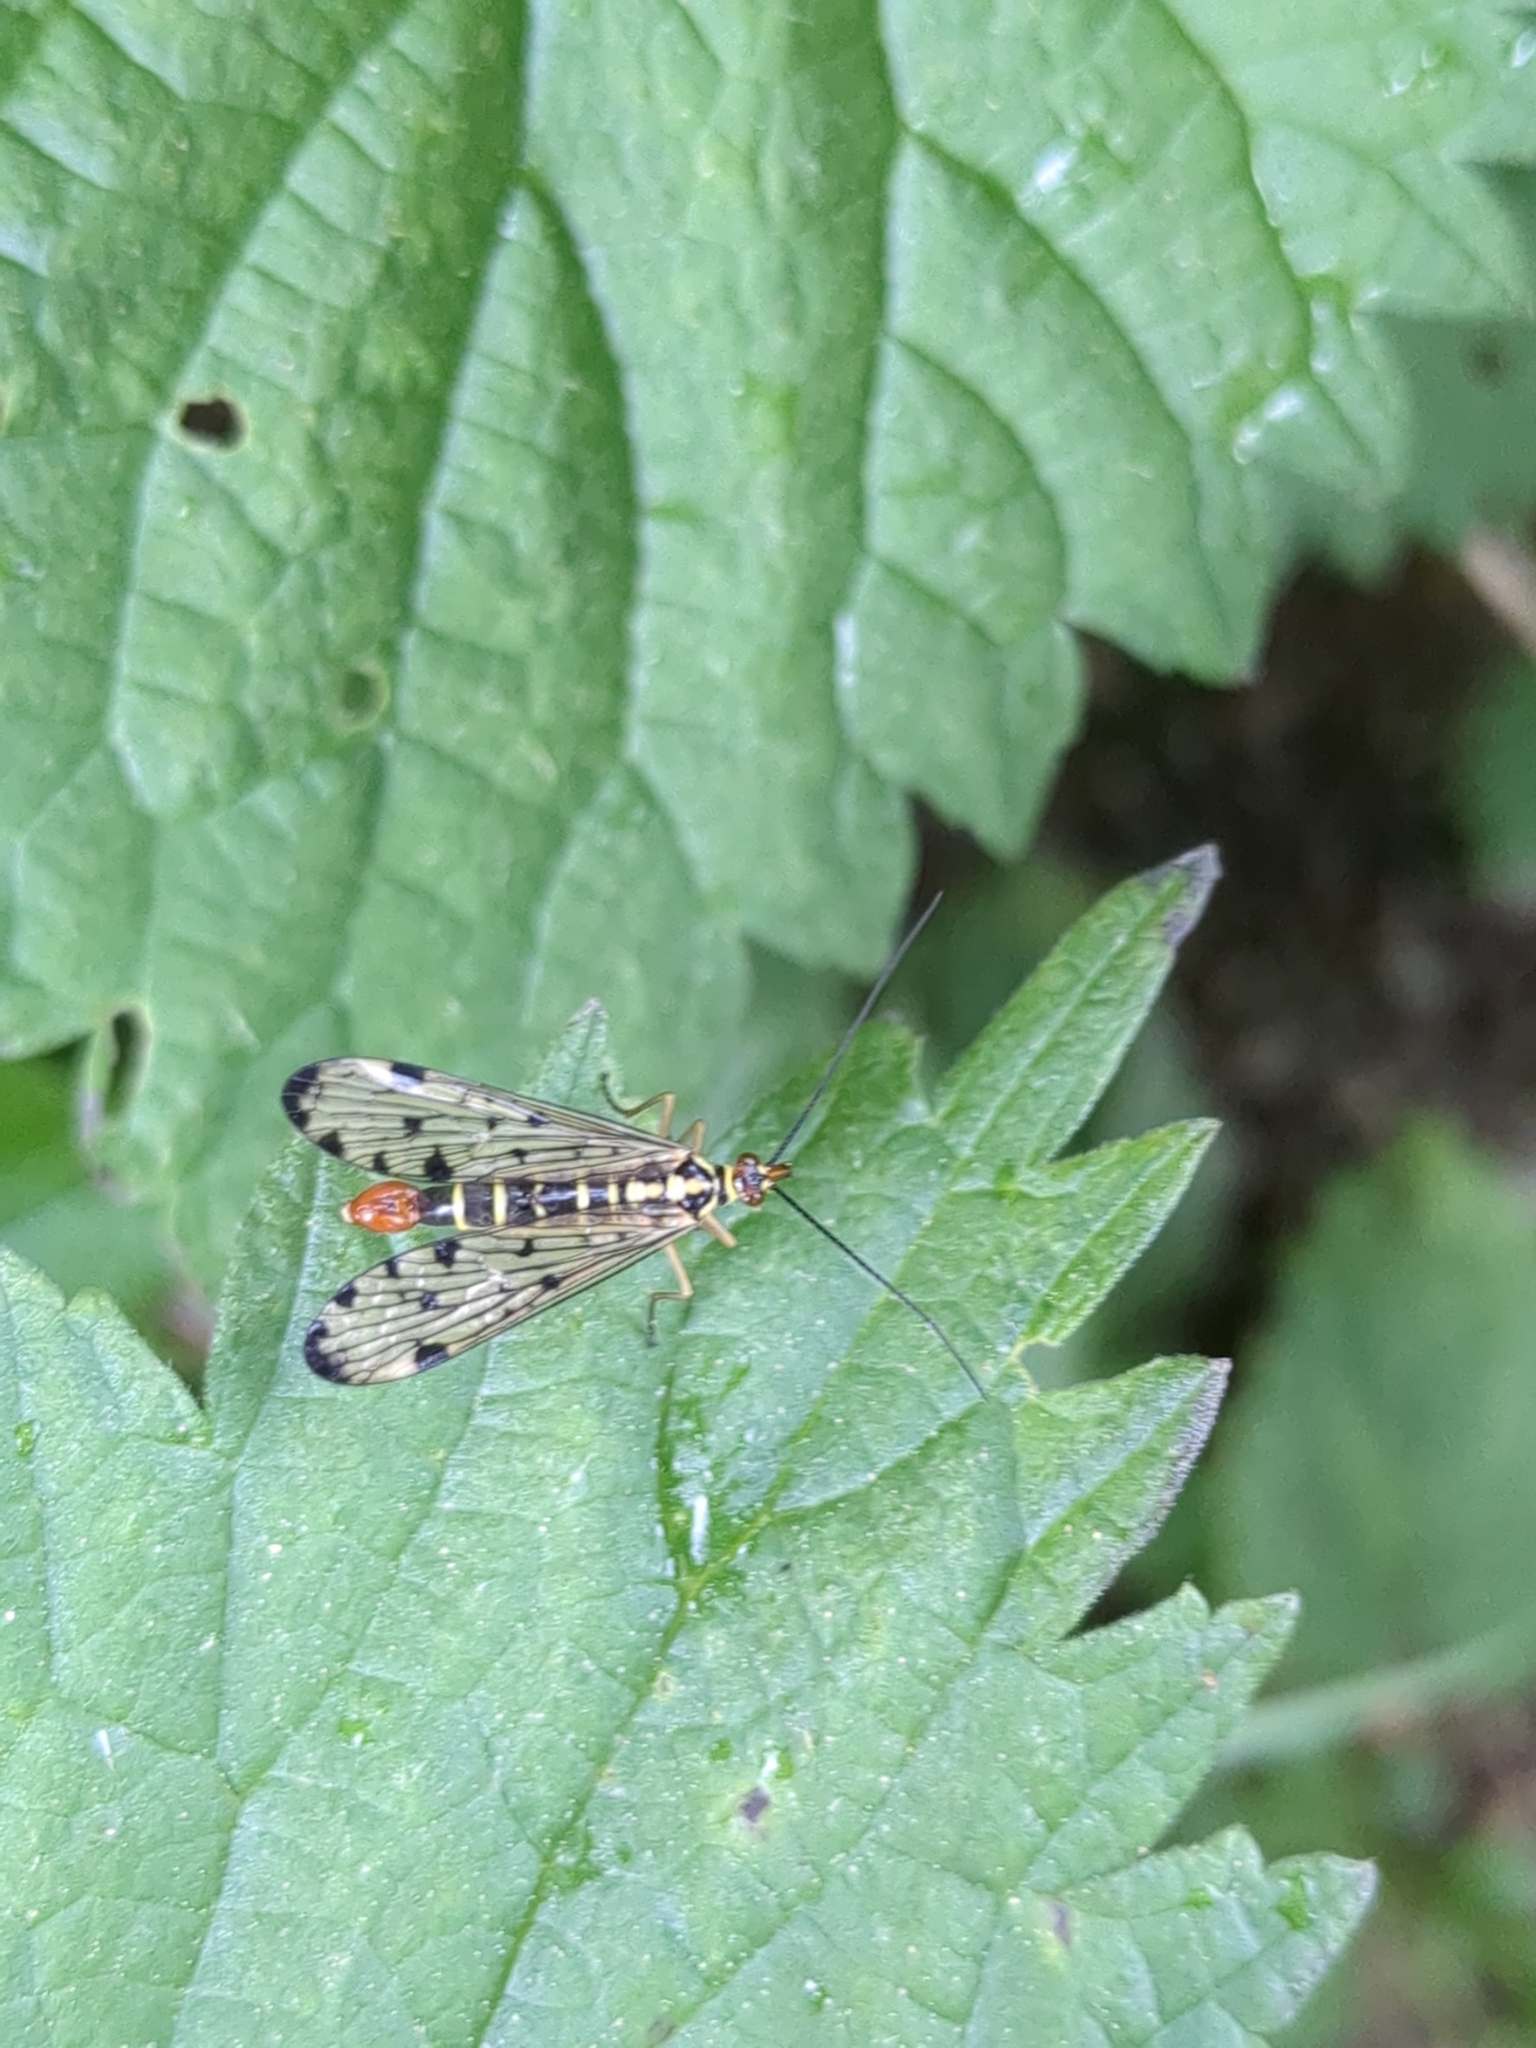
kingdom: Animalia
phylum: Arthropoda
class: Insecta
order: Mecoptera
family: Panorpidae
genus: Panorpa
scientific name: Panorpa germanica
